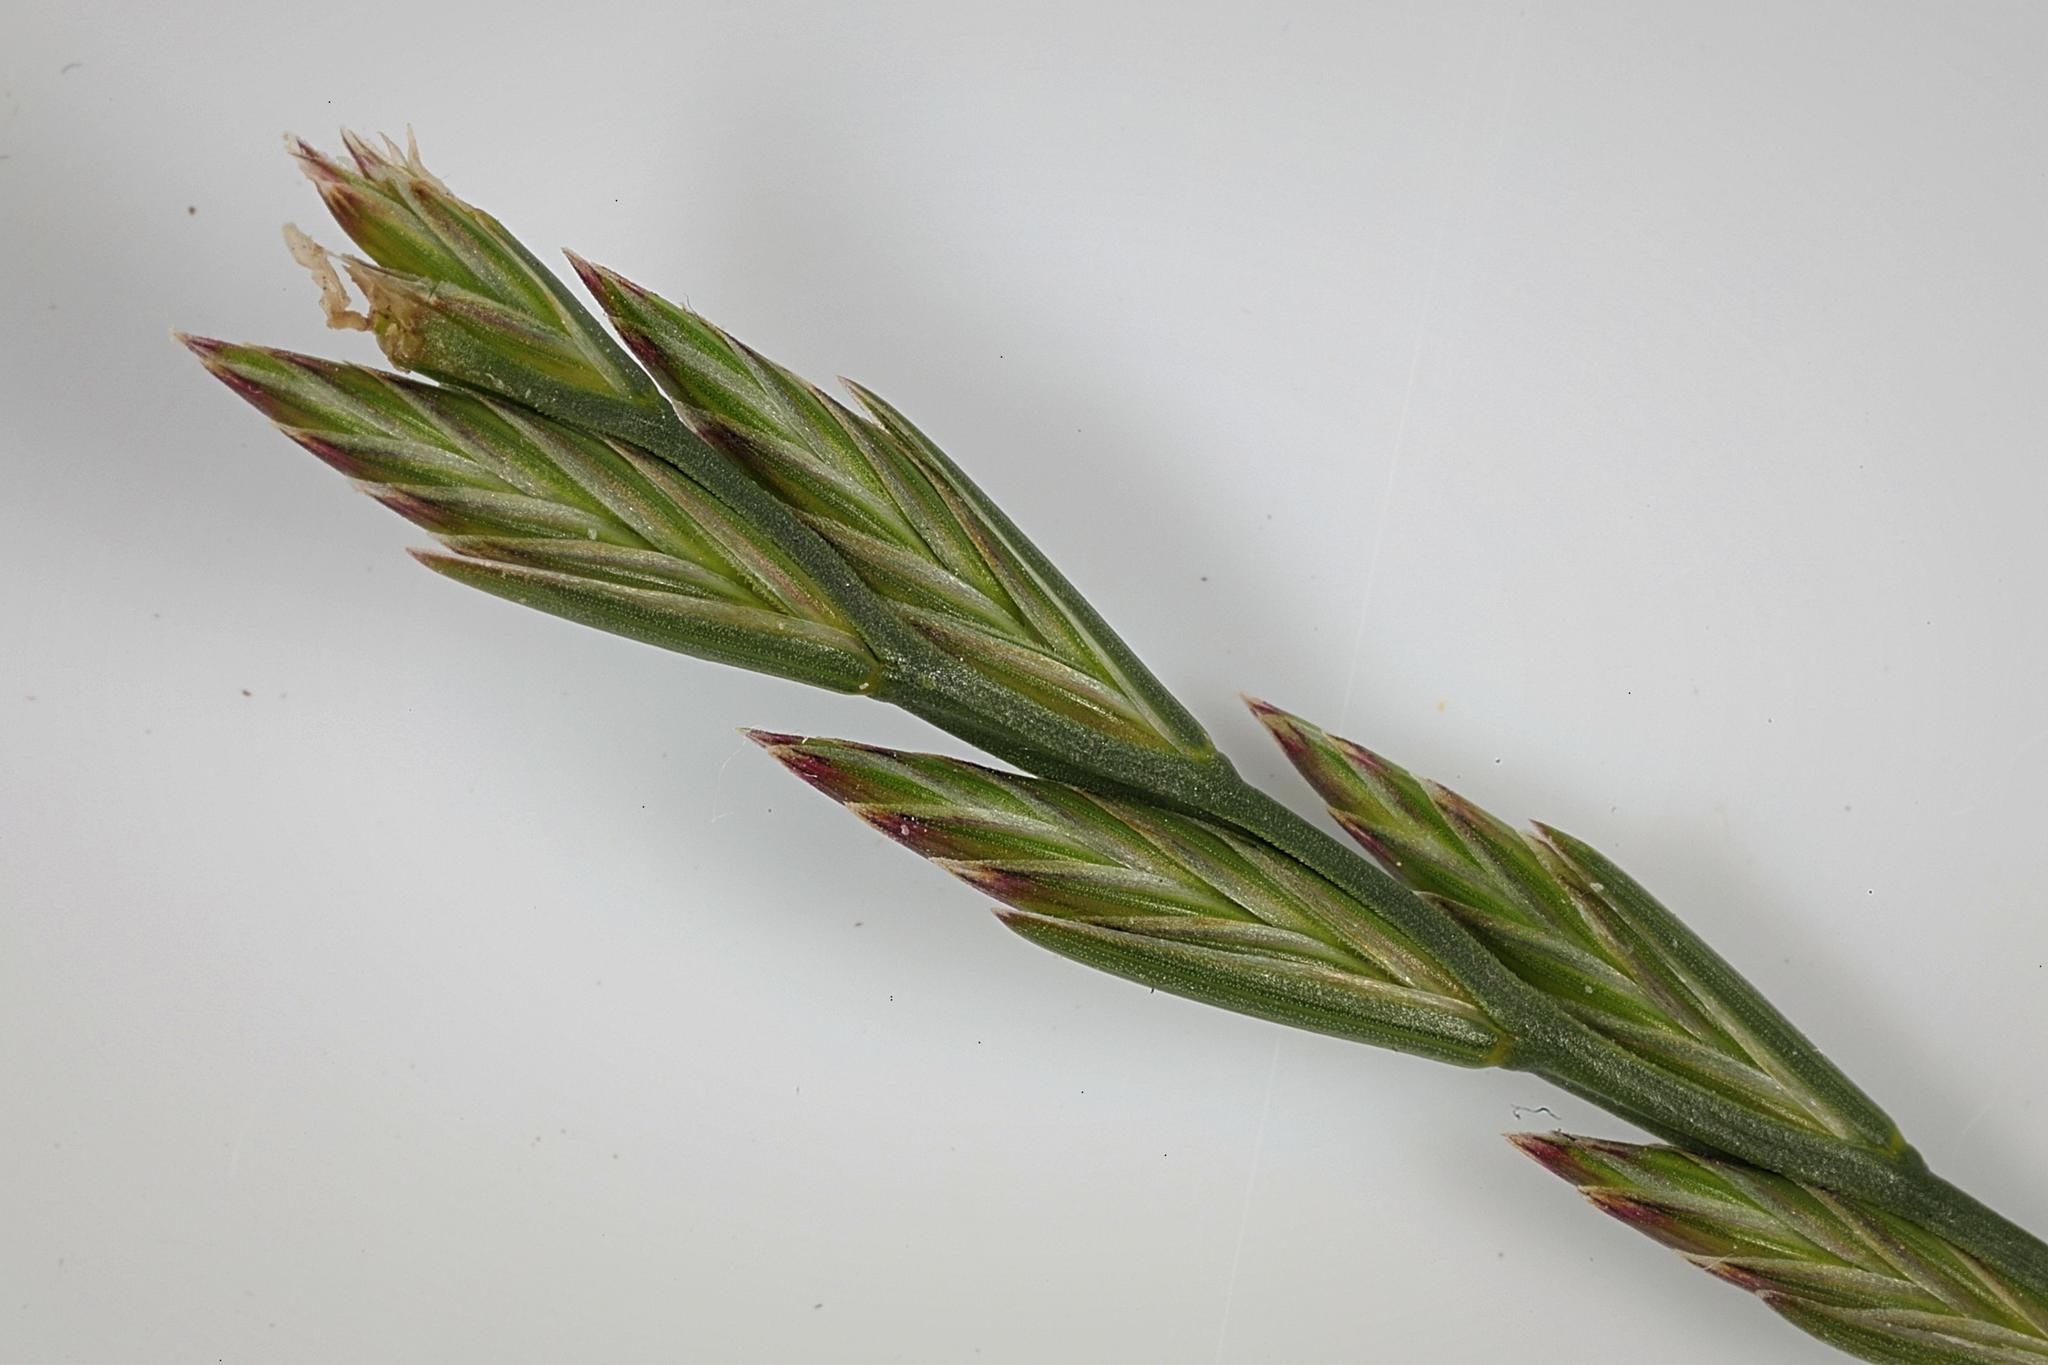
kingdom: Plantae
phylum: Tracheophyta
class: Liliopsida
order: Poales
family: Poaceae
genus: Lolium
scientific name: Lolium perenne
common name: Perennial ryegrass
